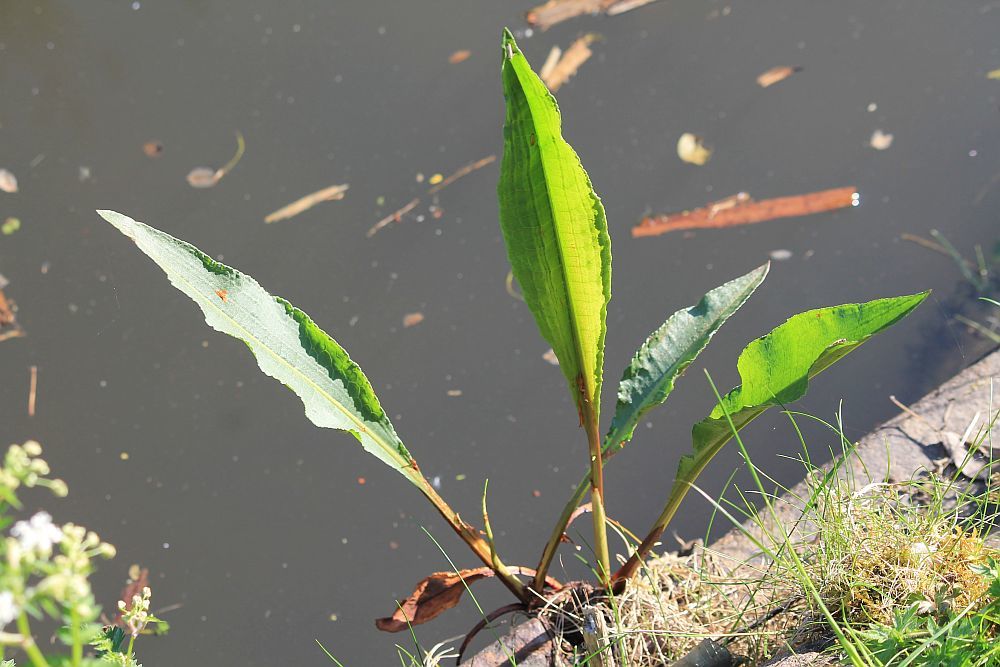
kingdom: Plantae
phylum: Tracheophyta
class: Magnoliopsida
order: Caryophyllales
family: Polygonaceae
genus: Rumex
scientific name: Rumex hydrolapathum
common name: Water dock
